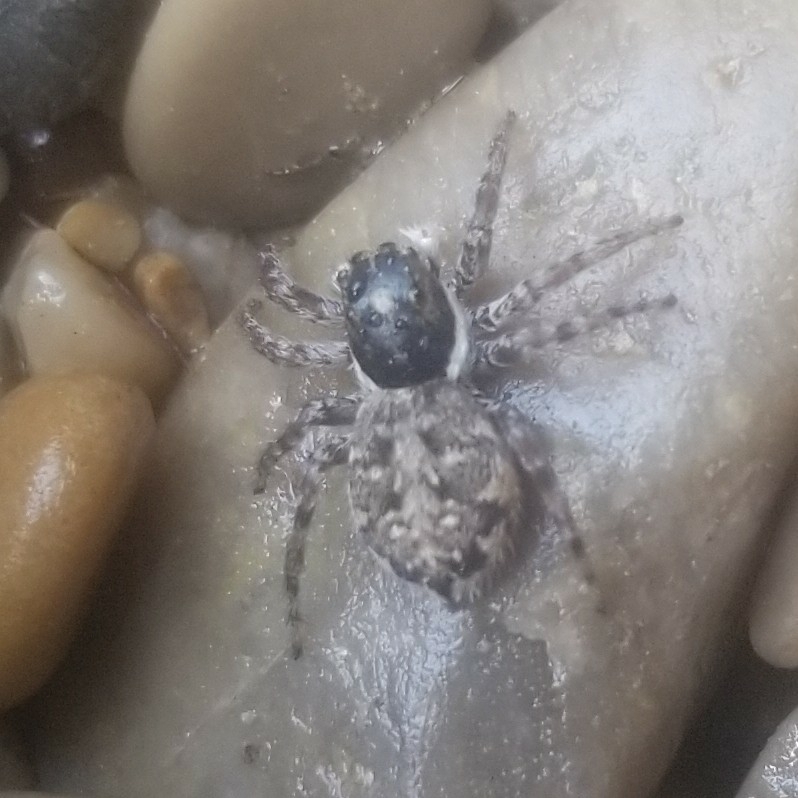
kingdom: Animalia
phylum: Arthropoda
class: Arachnida
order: Araneae
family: Salticidae
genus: Menemerus
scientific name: Menemerus semilimbatus
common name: Jumping spider
